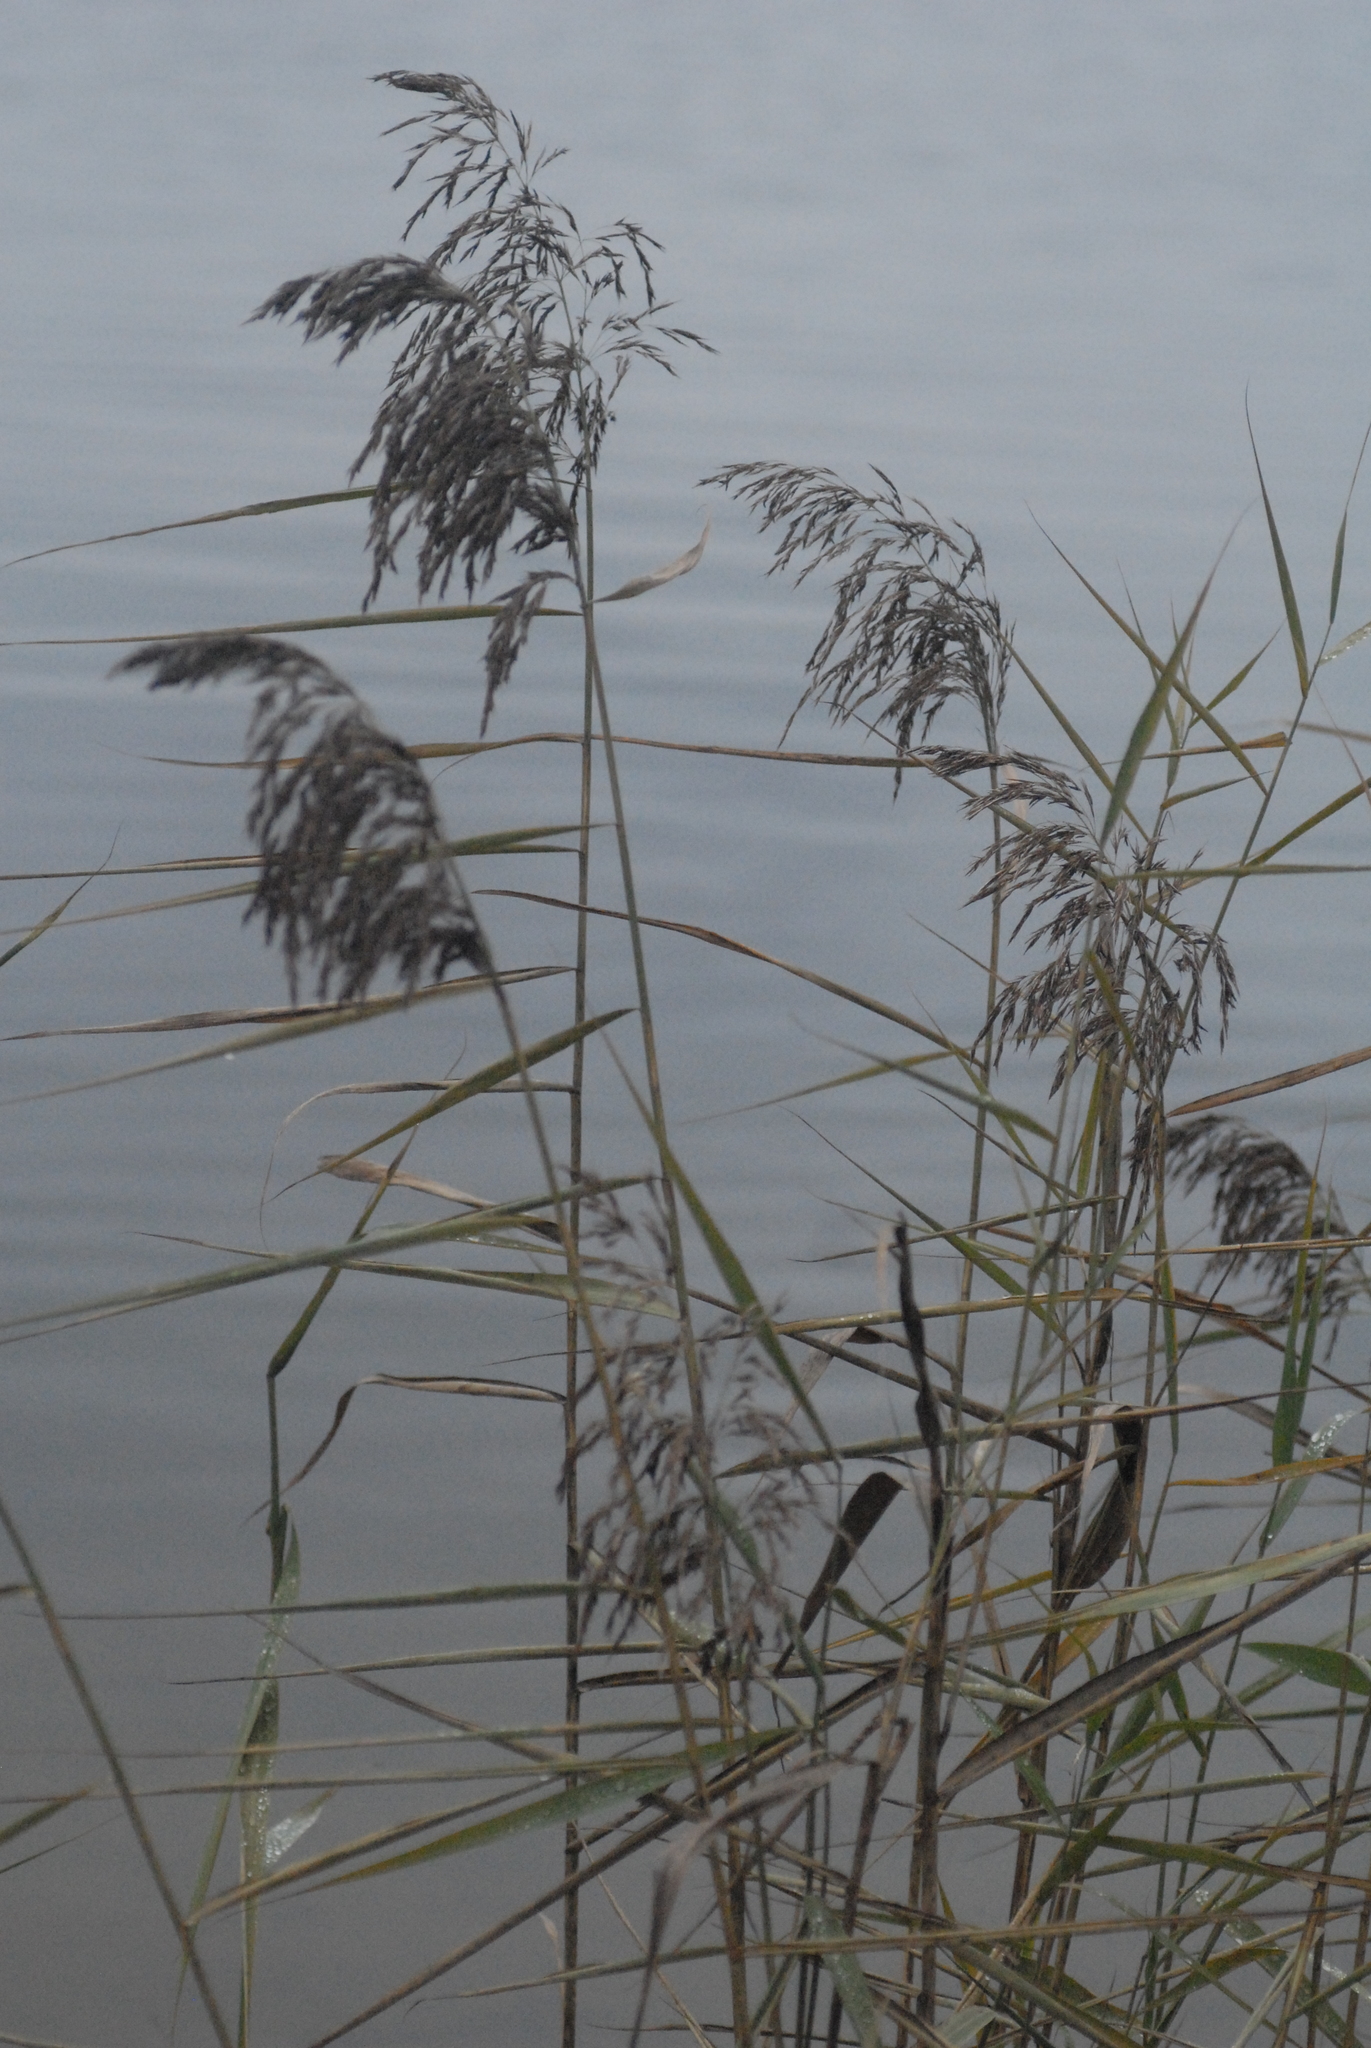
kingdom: Plantae
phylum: Tracheophyta
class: Liliopsida
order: Poales
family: Poaceae
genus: Phragmites
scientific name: Phragmites australis
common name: Common reed
